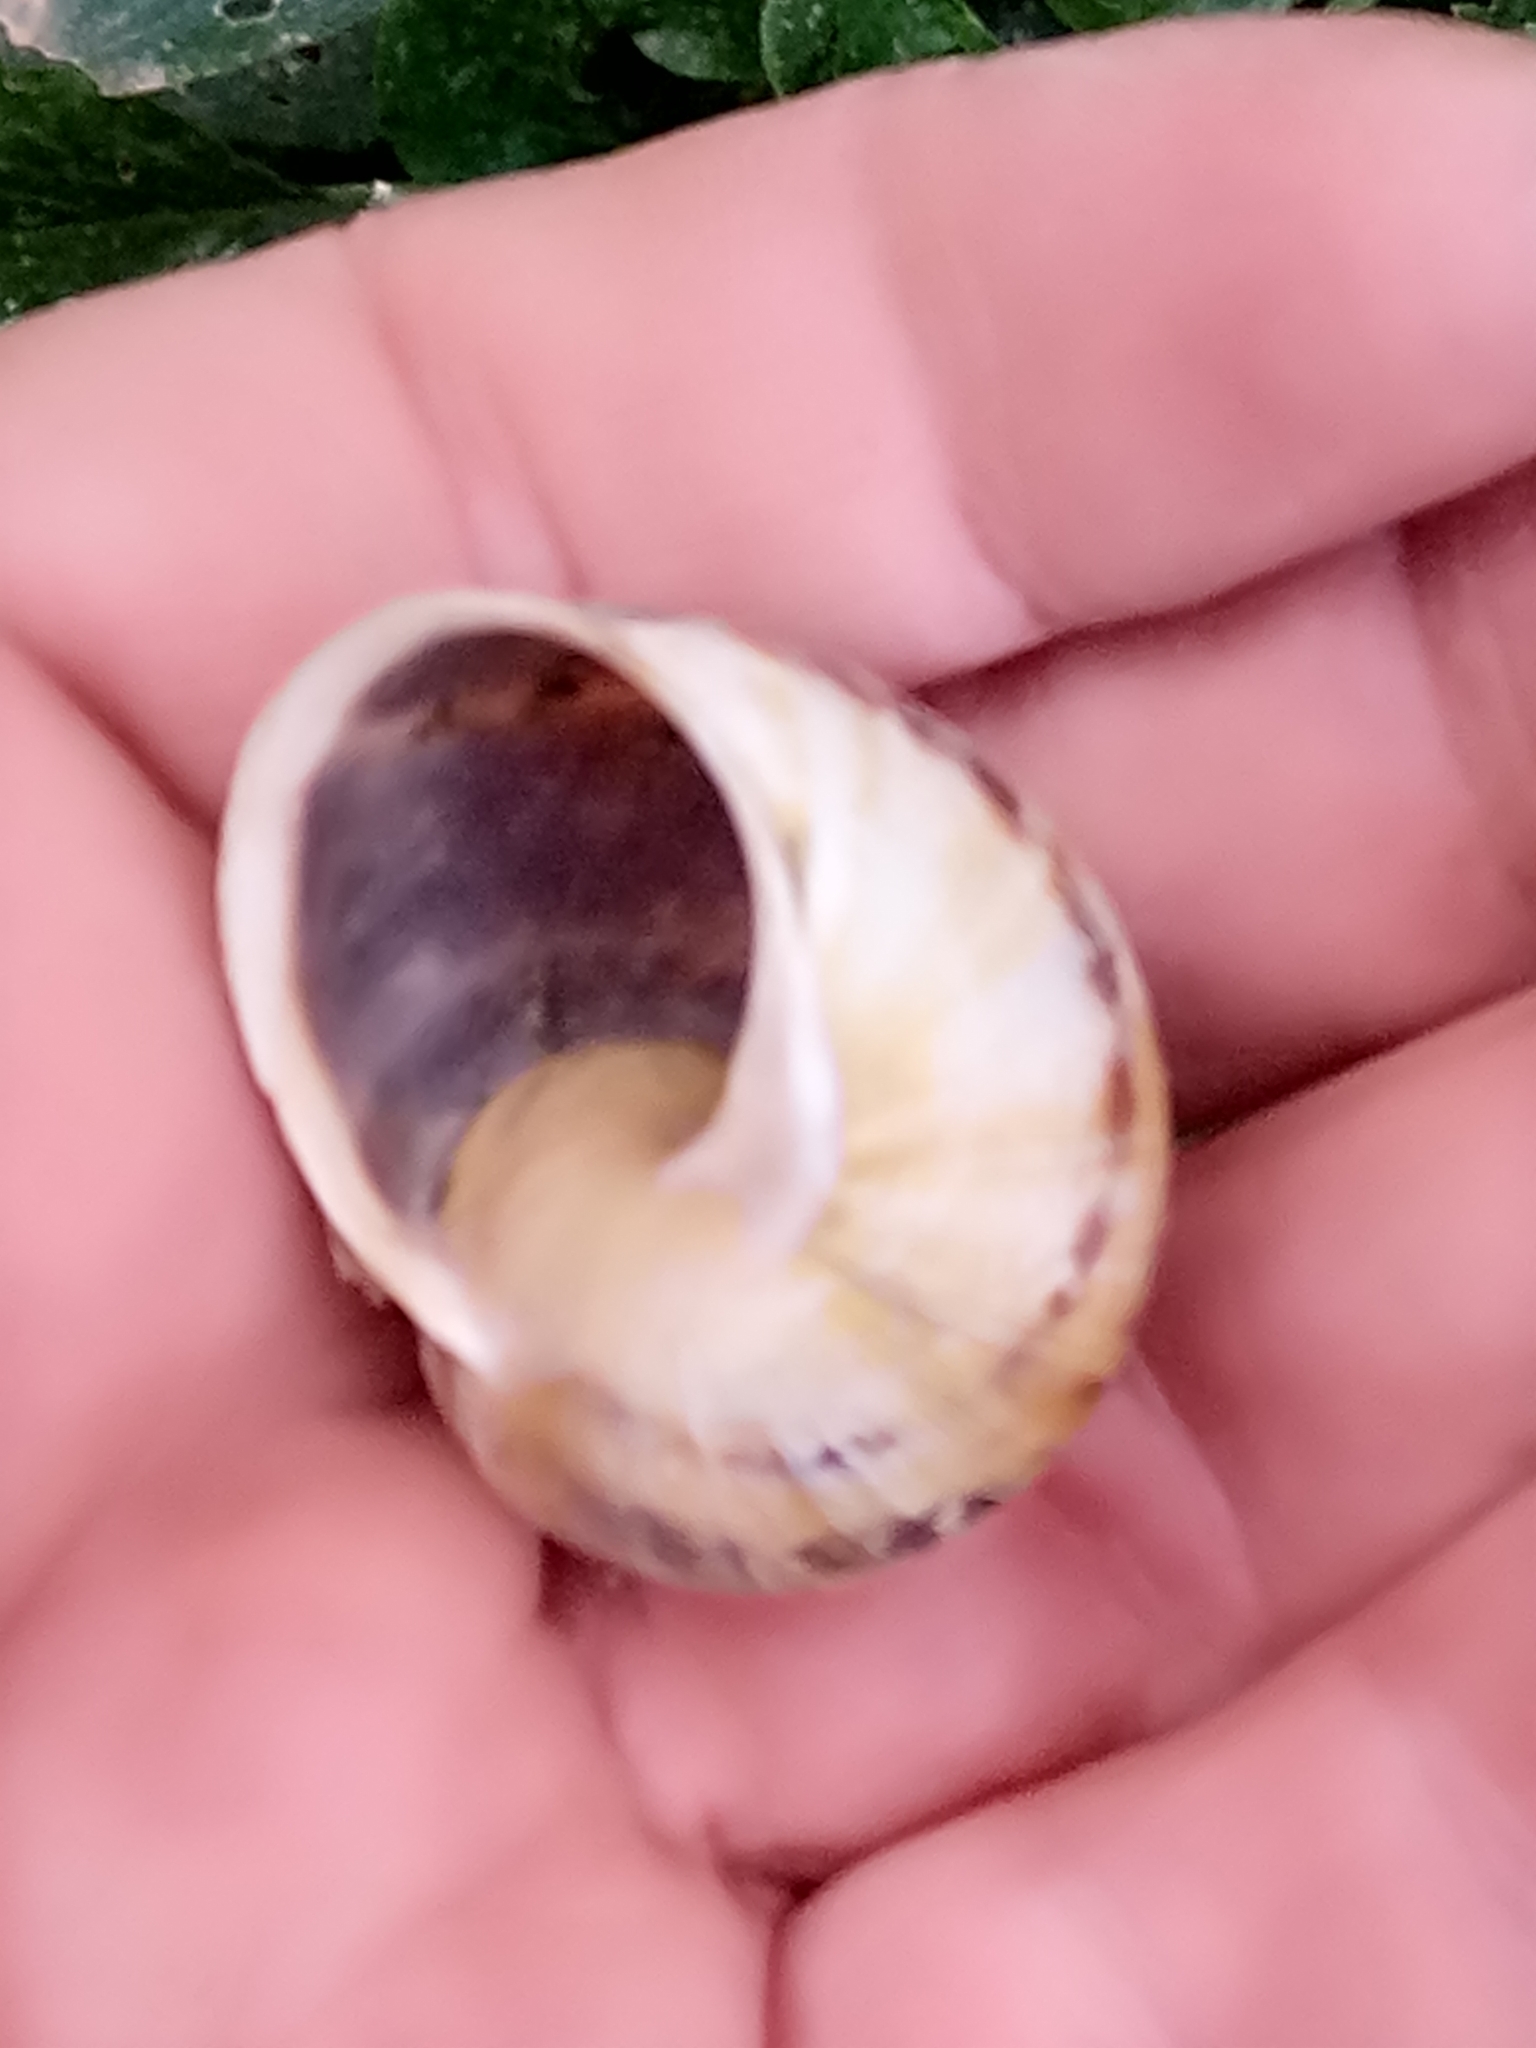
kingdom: Animalia
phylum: Mollusca
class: Gastropoda
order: Stylommatophora
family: Helicidae
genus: Cornu
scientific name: Cornu aspersum
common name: Brown garden snail
